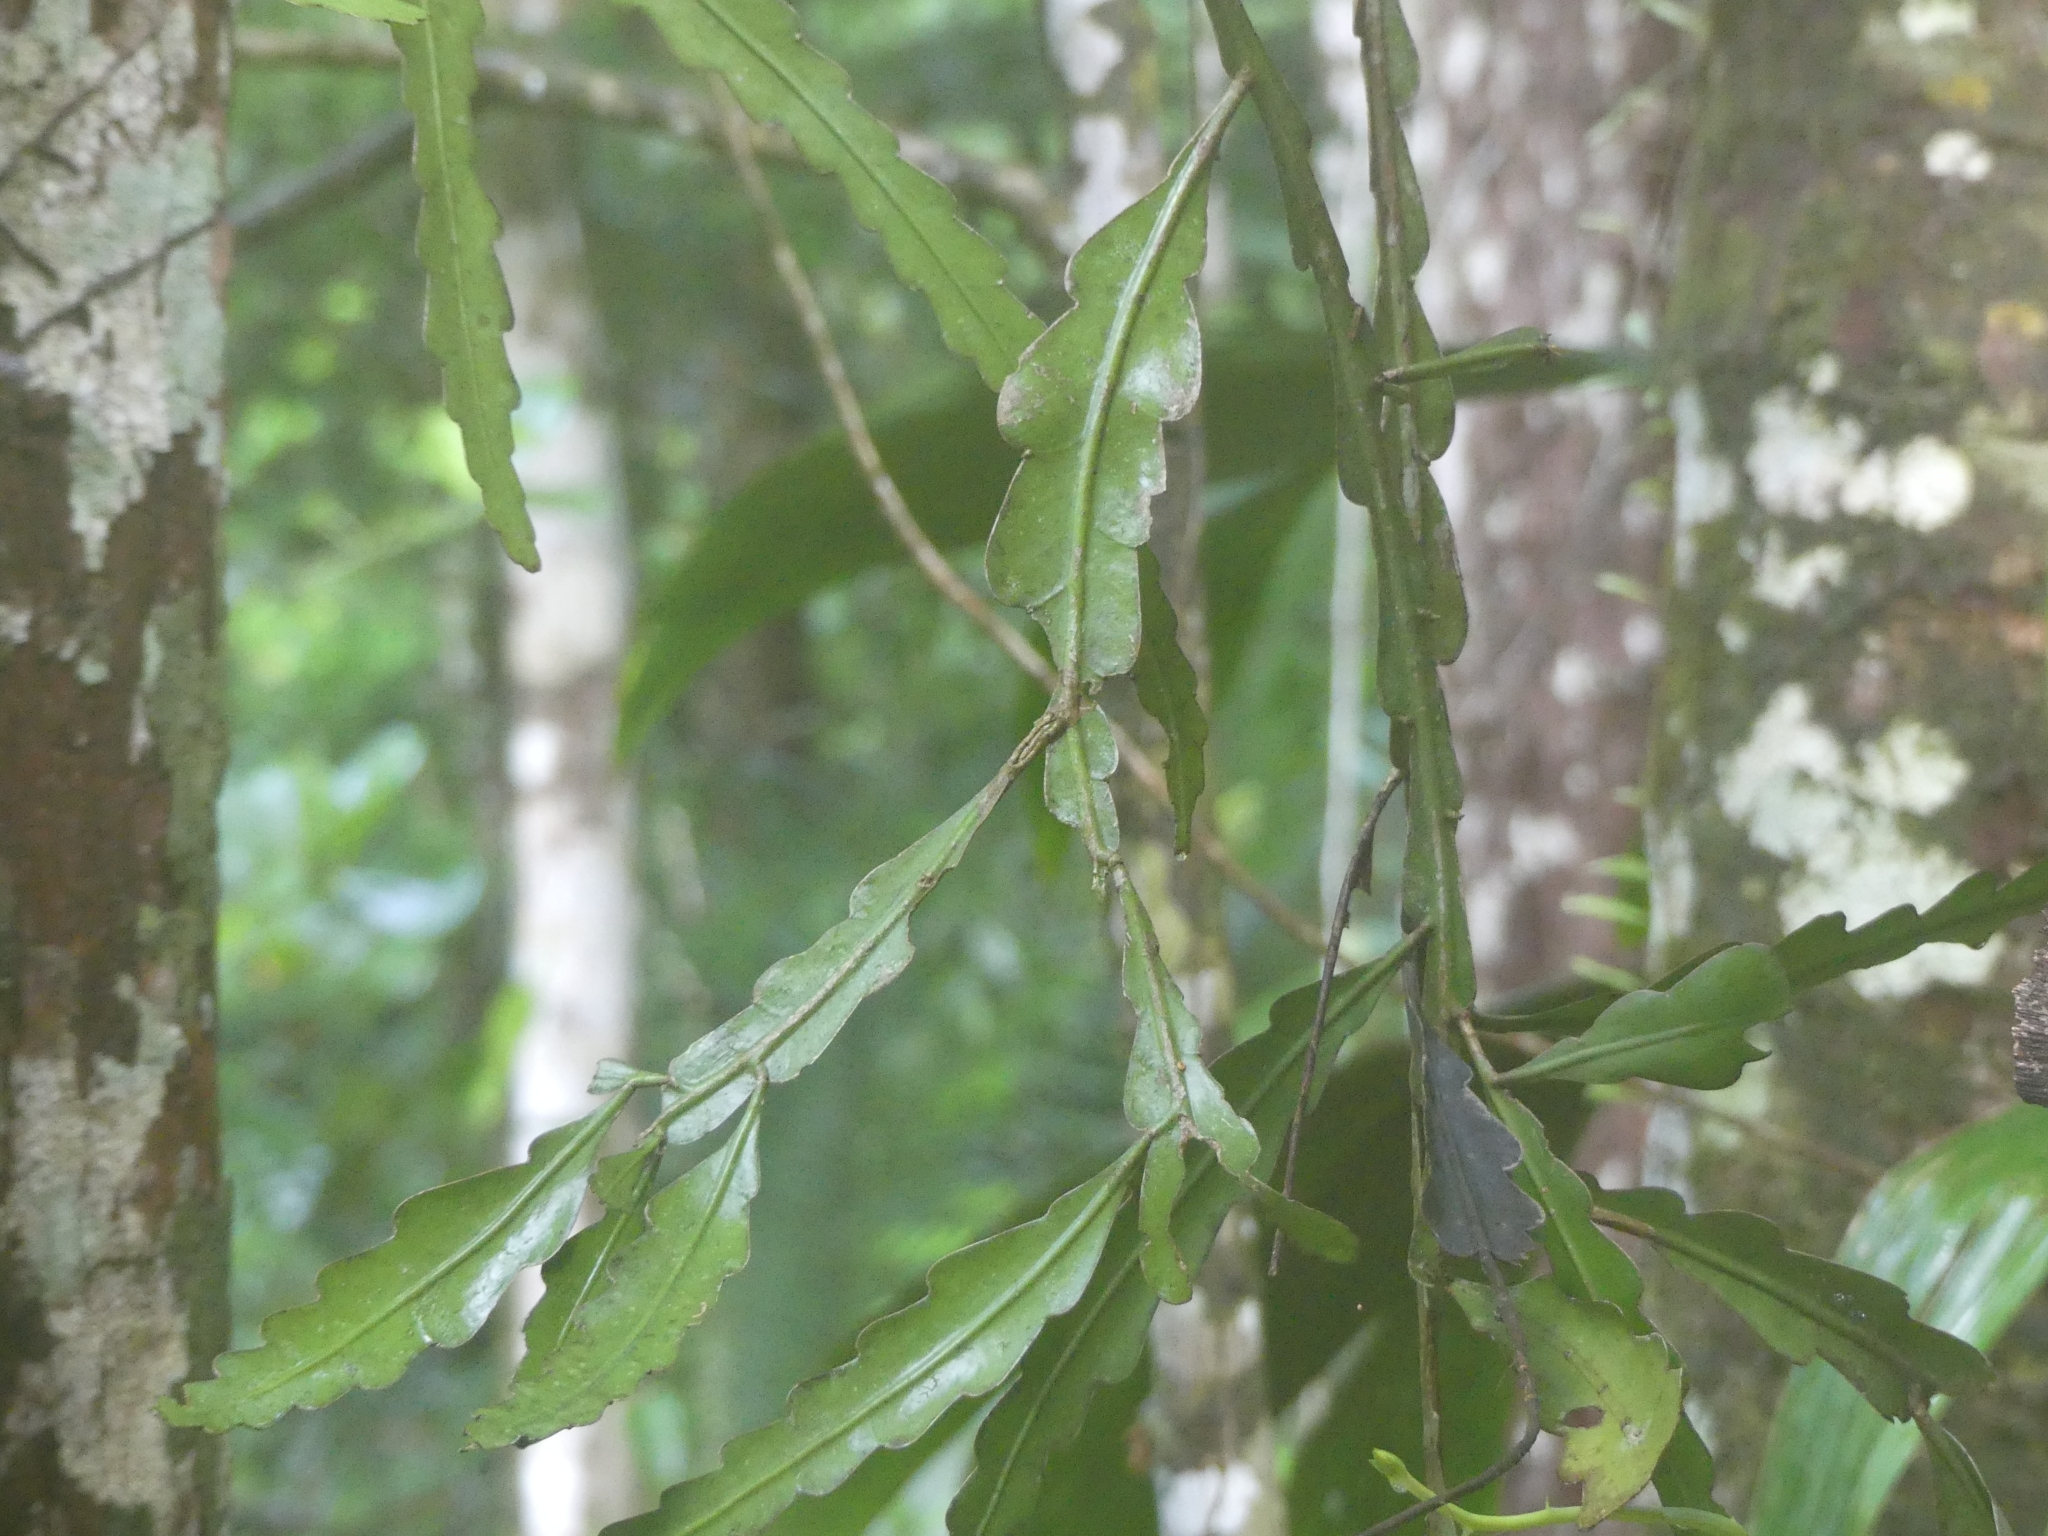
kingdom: Plantae
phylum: Tracheophyta
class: Magnoliopsida
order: Caryophyllales
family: Cactaceae
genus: Epiphyllum
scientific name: Epiphyllum phyllanthus
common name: Climbing cactus
